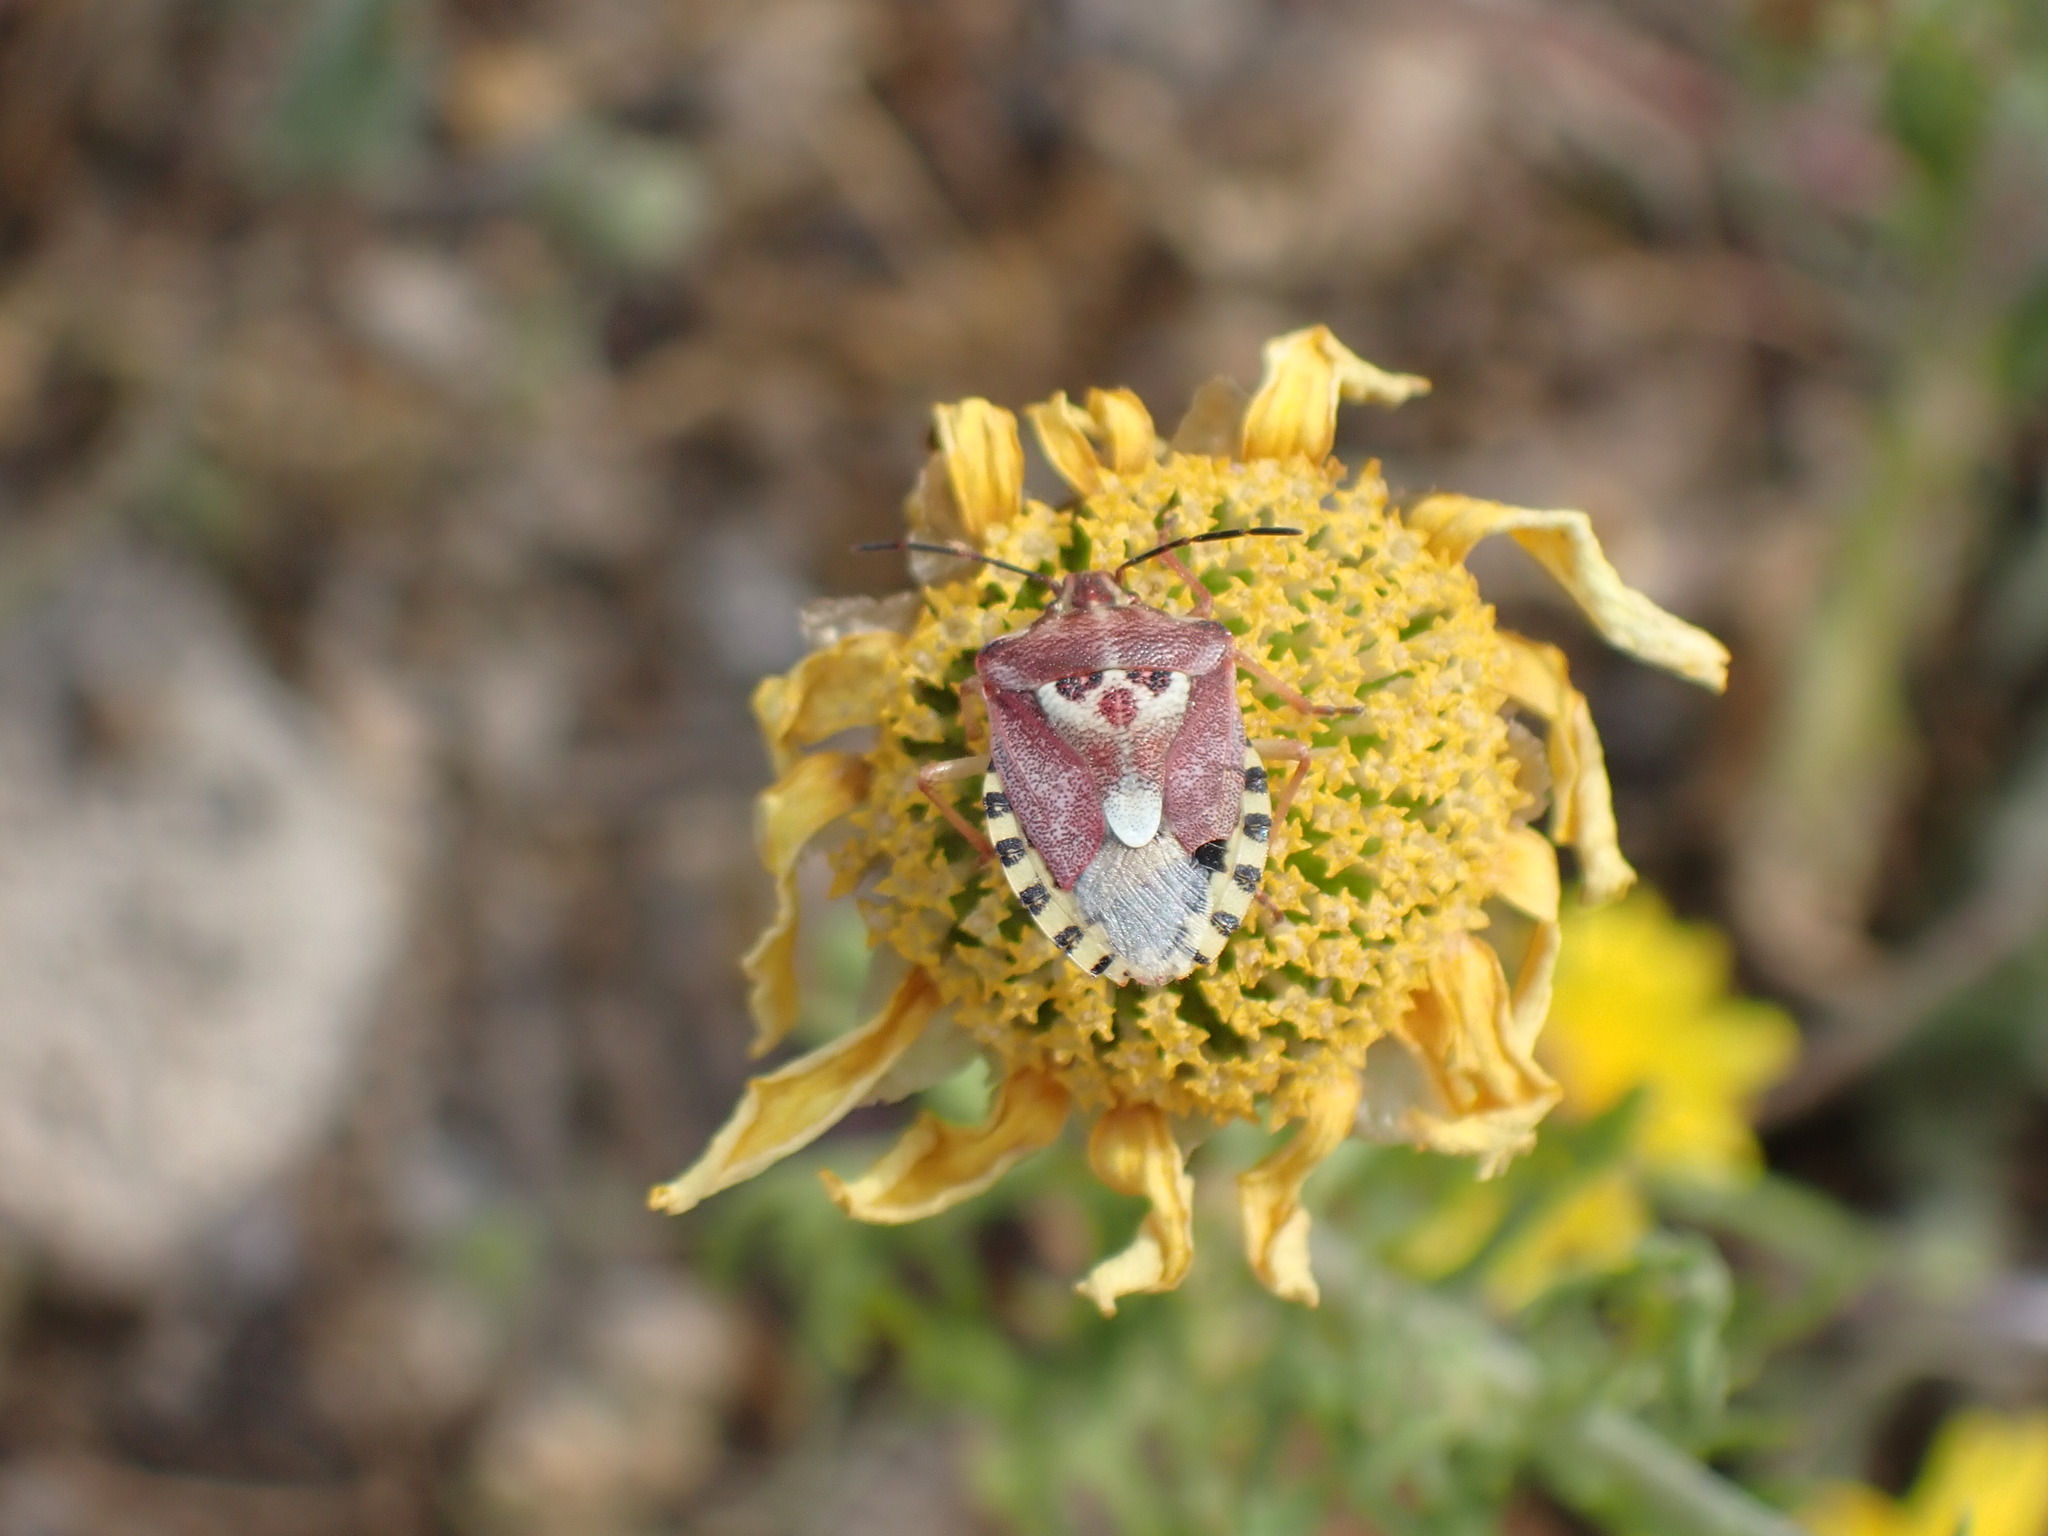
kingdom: Animalia
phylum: Arthropoda
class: Insecta
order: Hemiptera
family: Miridae
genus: Orthops
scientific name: Orthops kalmii
